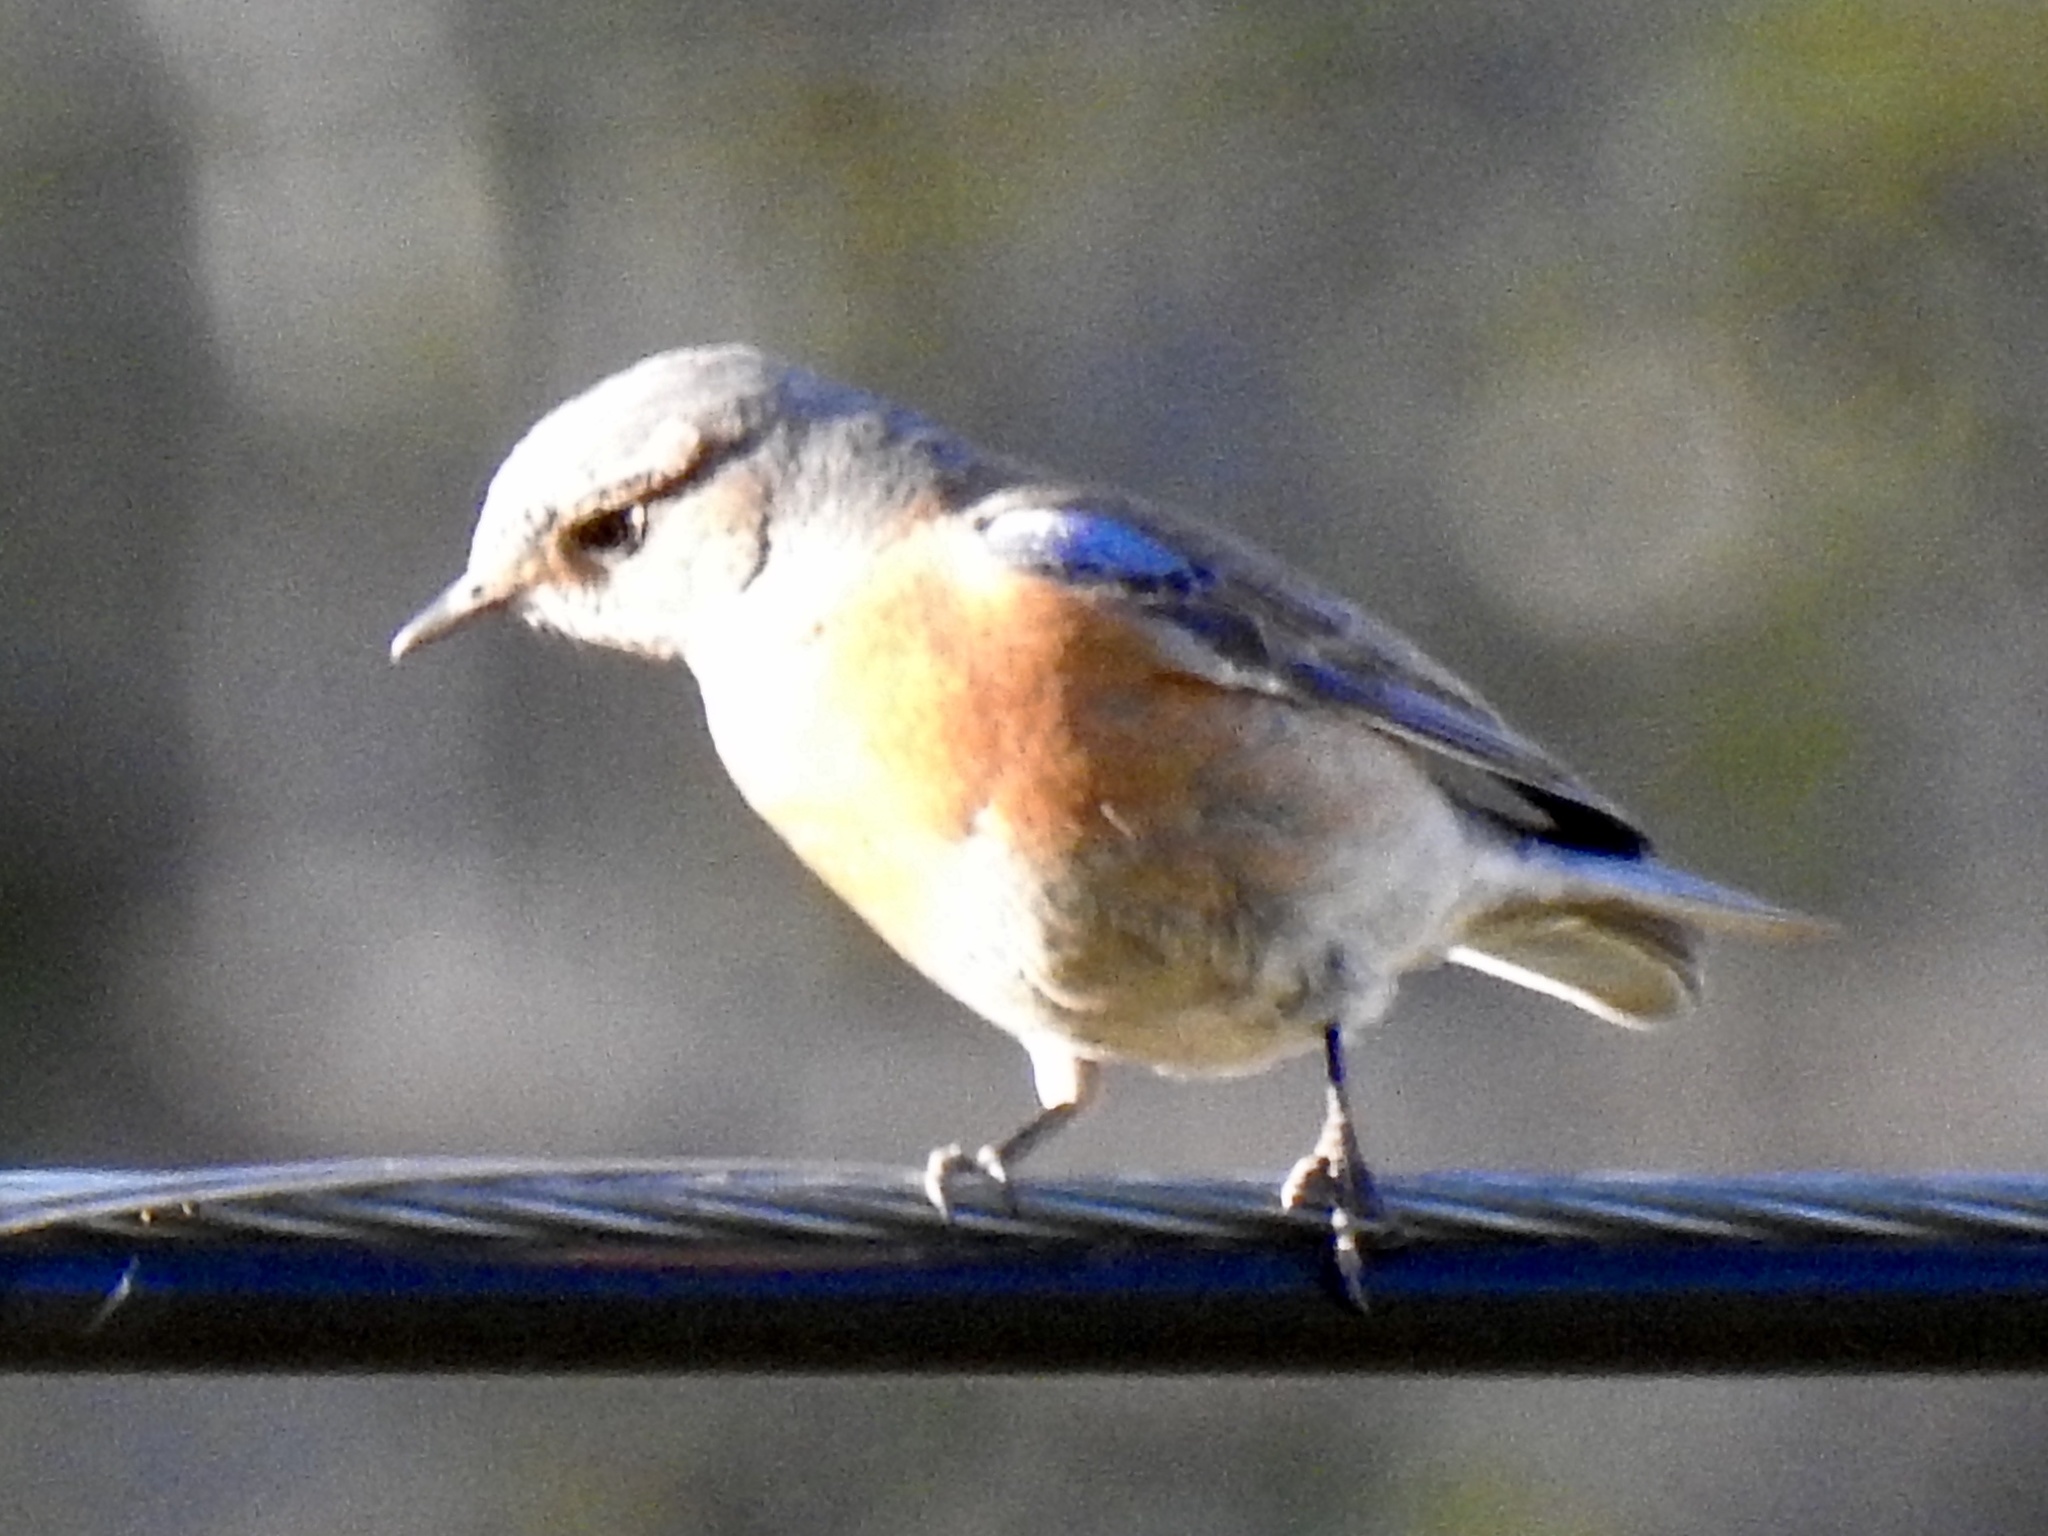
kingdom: Animalia
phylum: Chordata
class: Aves
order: Passeriformes
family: Turdidae
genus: Sialia
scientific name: Sialia mexicana
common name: Western bluebird
